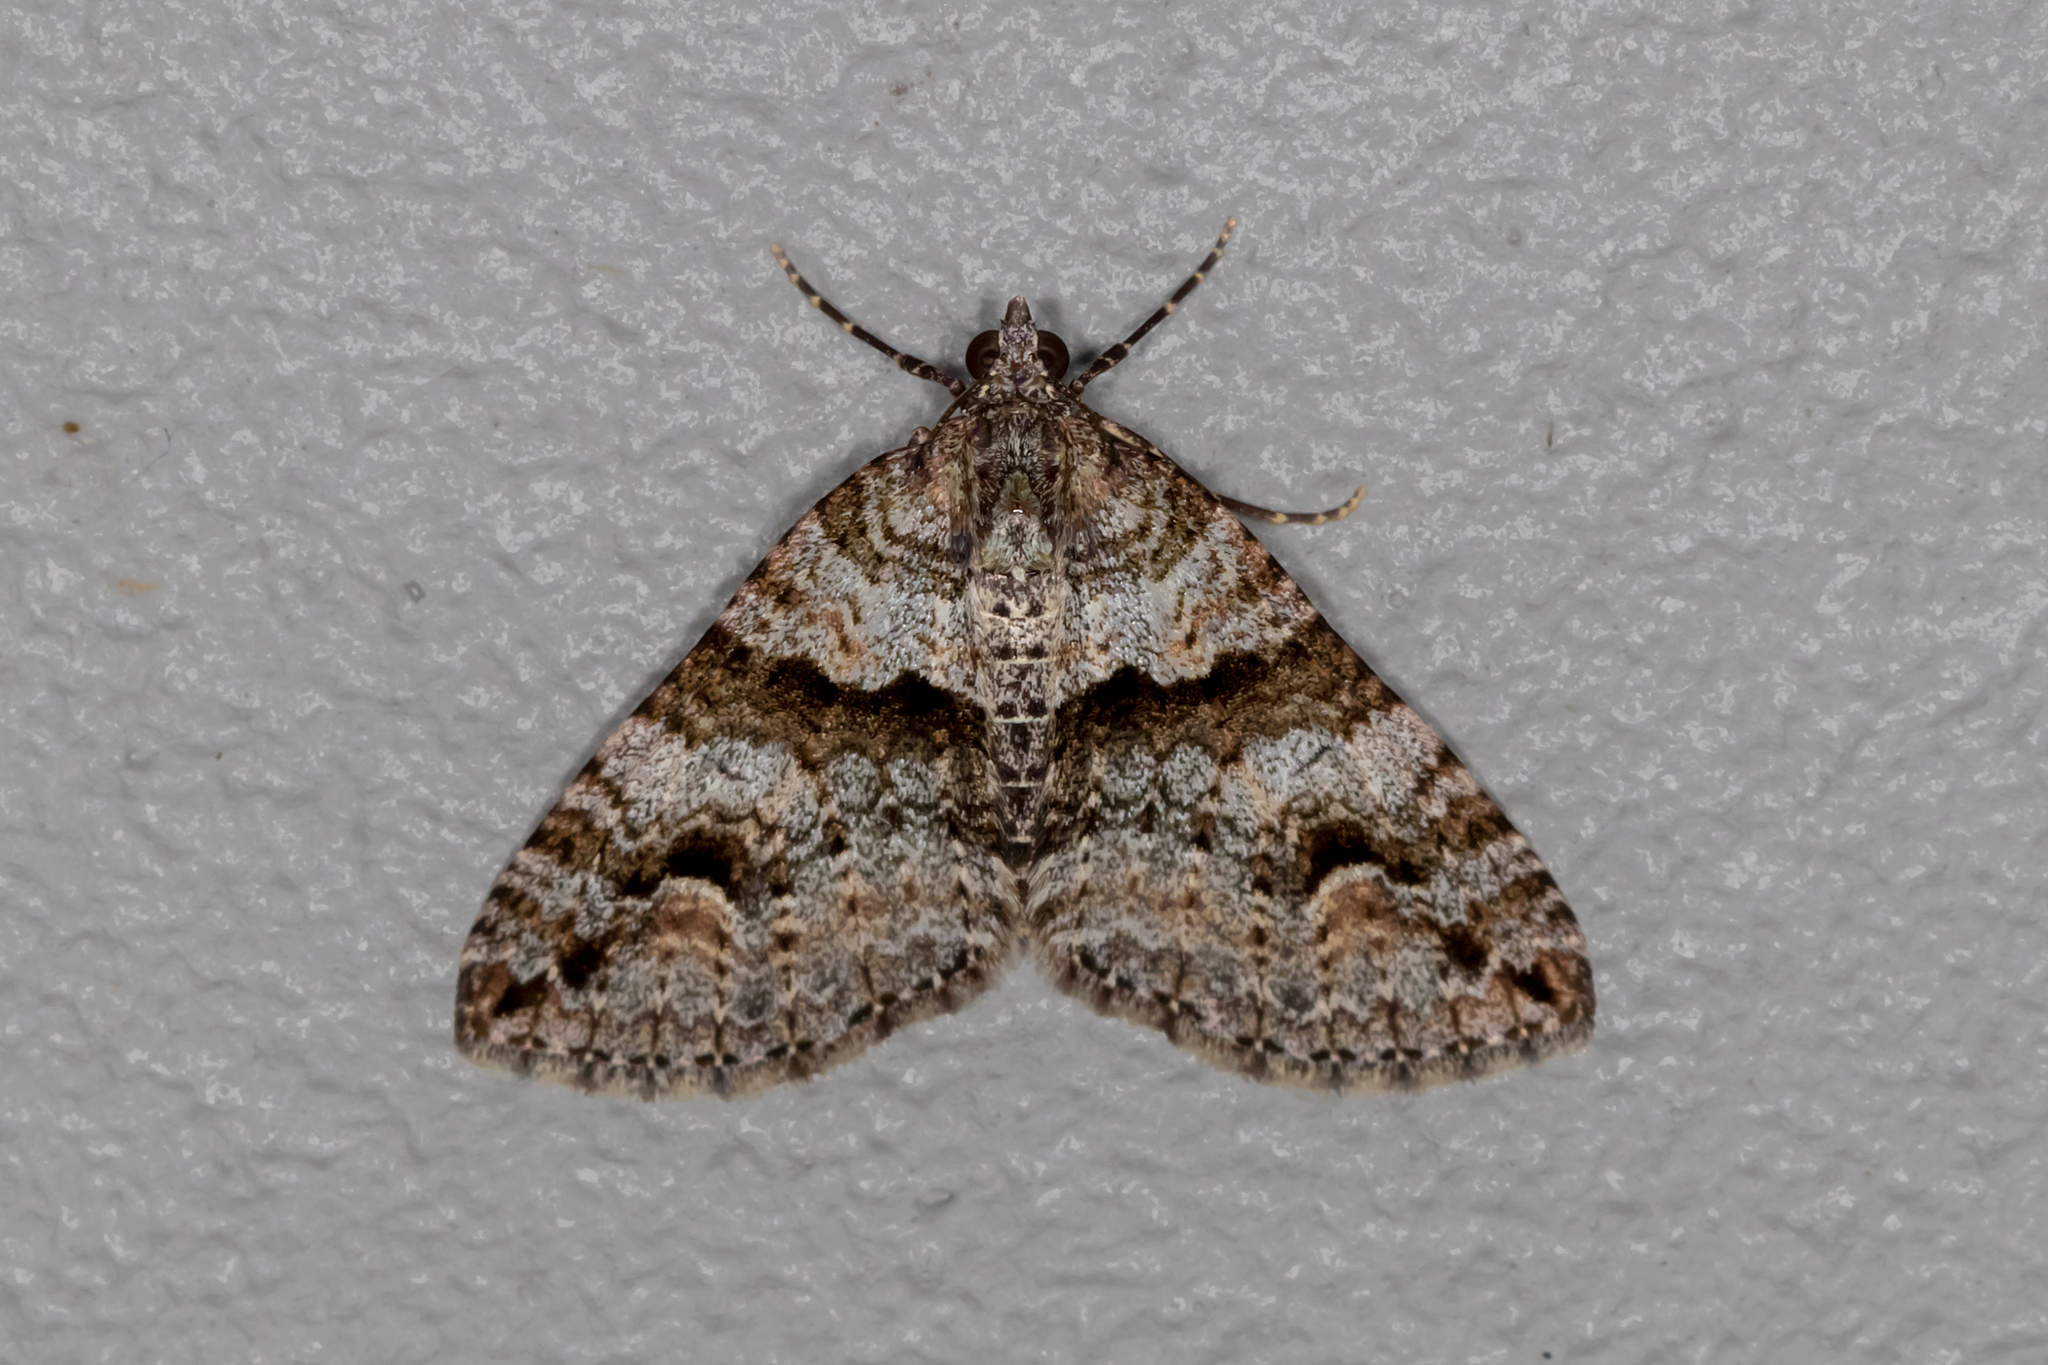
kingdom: Animalia
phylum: Arthropoda
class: Insecta
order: Lepidoptera
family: Geometridae
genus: Heterochasta
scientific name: Heterochasta conglobata
